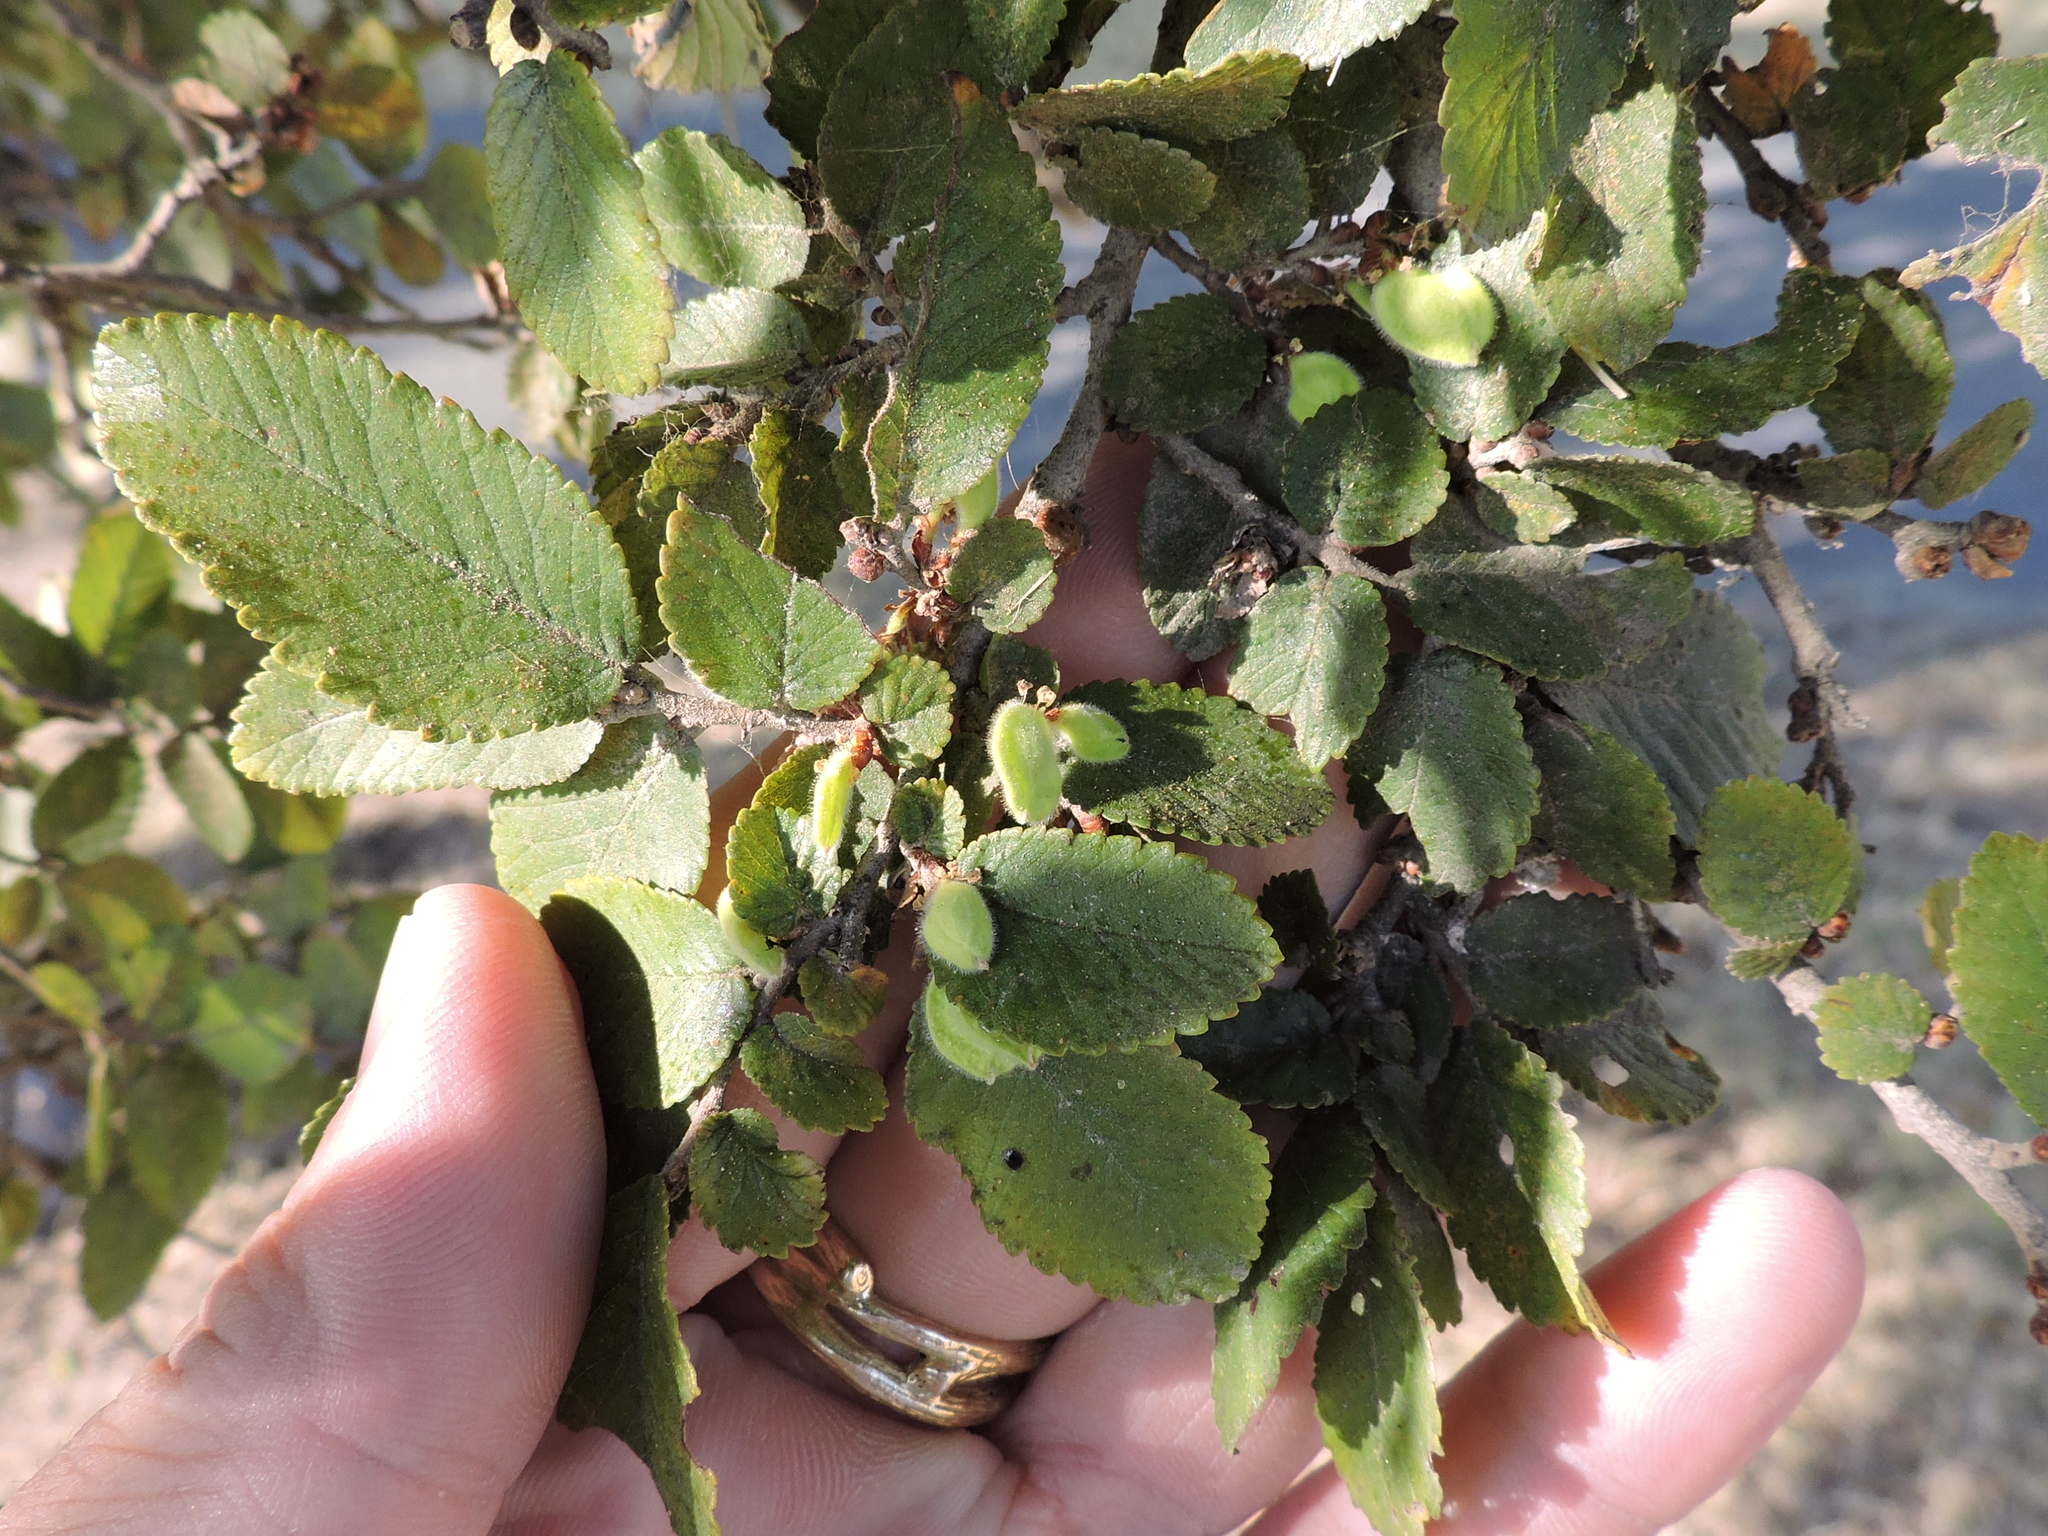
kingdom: Plantae
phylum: Tracheophyta
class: Magnoliopsida
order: Rosales
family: Ulmaceae
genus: Ulmus
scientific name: Ulmus crassifolia
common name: Basket elm
